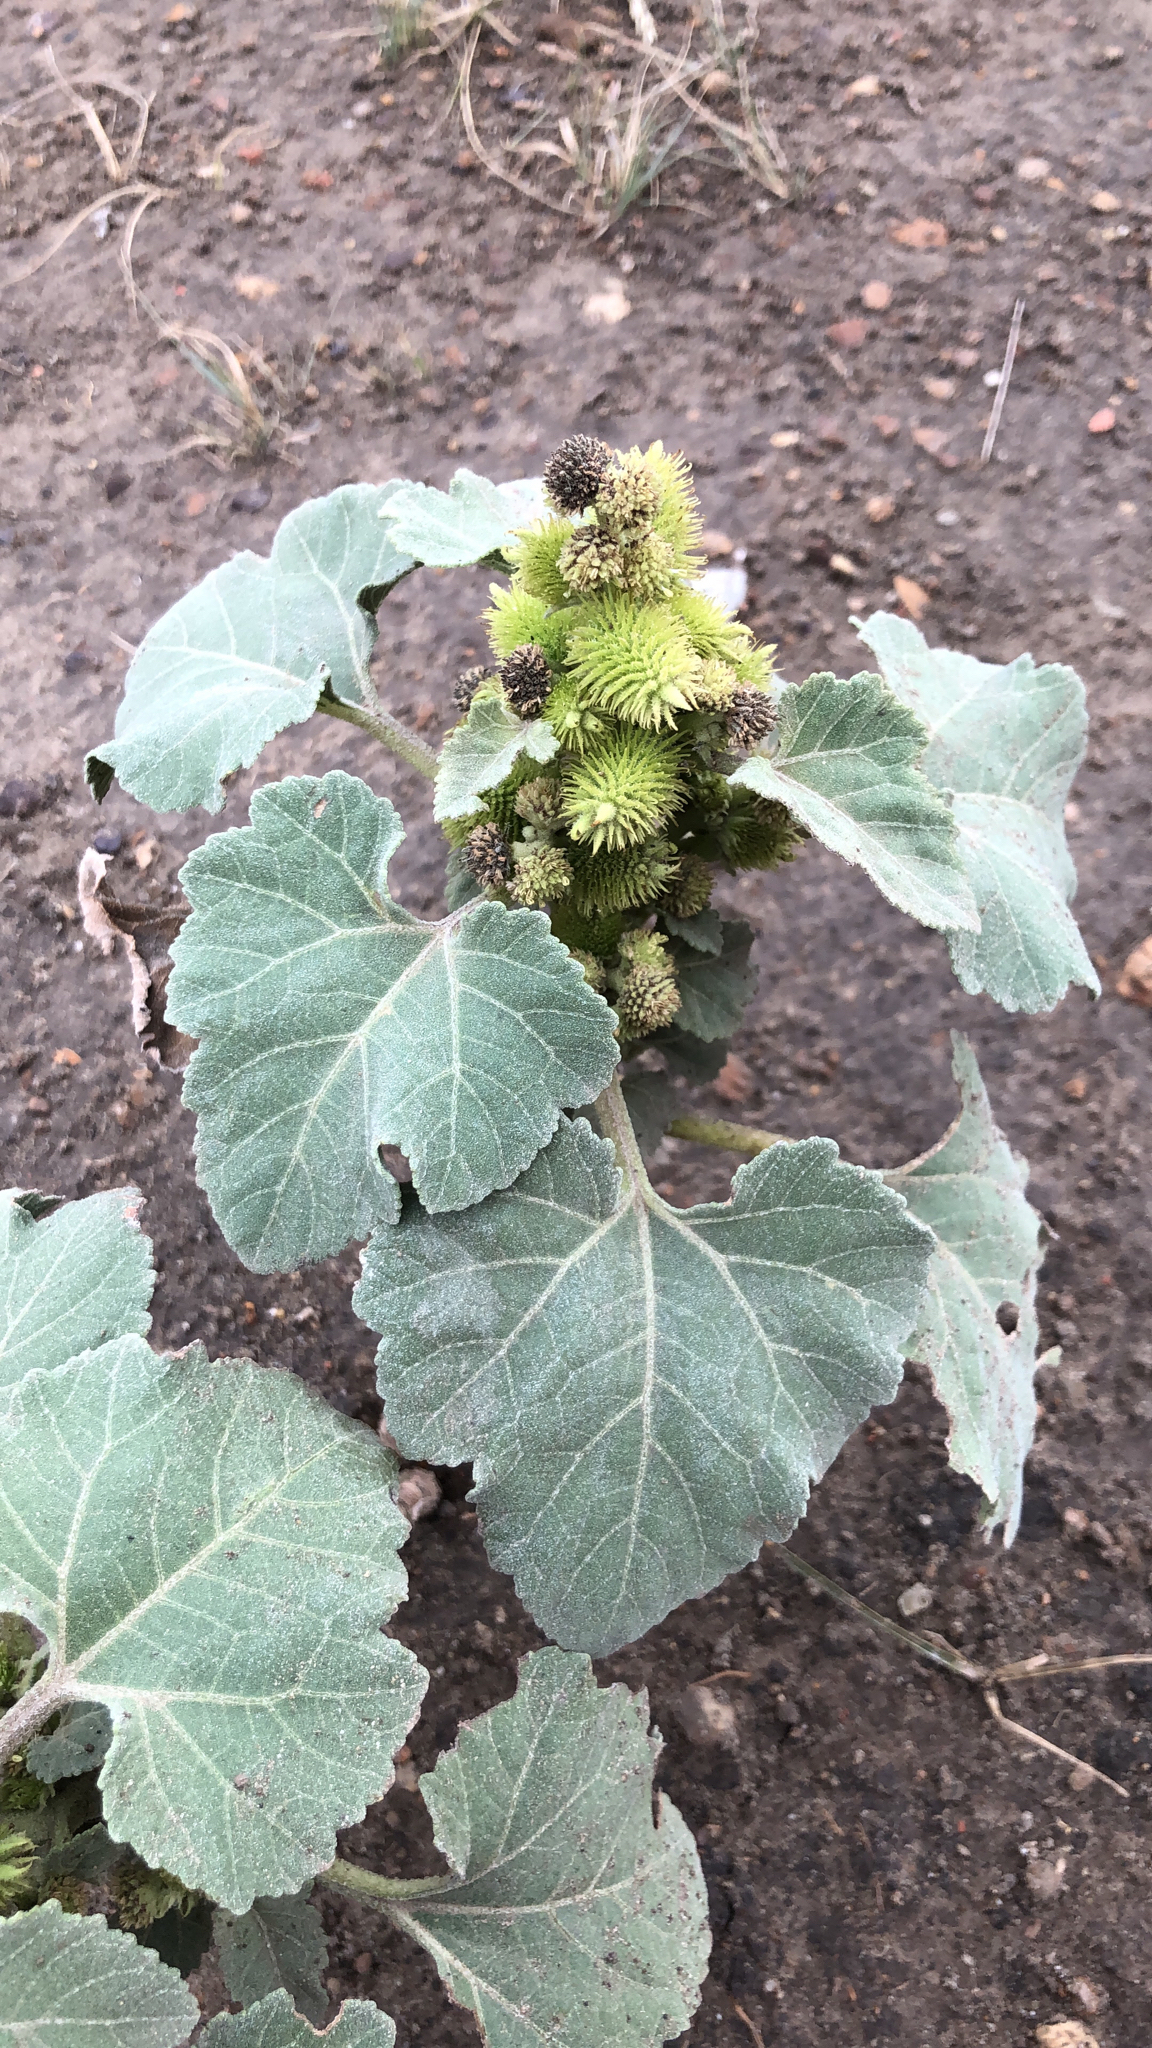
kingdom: Plantae
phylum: Tracheophyta
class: Magnoliopsida
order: Asterales
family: Asteraceae
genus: Xanthium
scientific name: Xanthium strumarium
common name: Rough cocklebur
